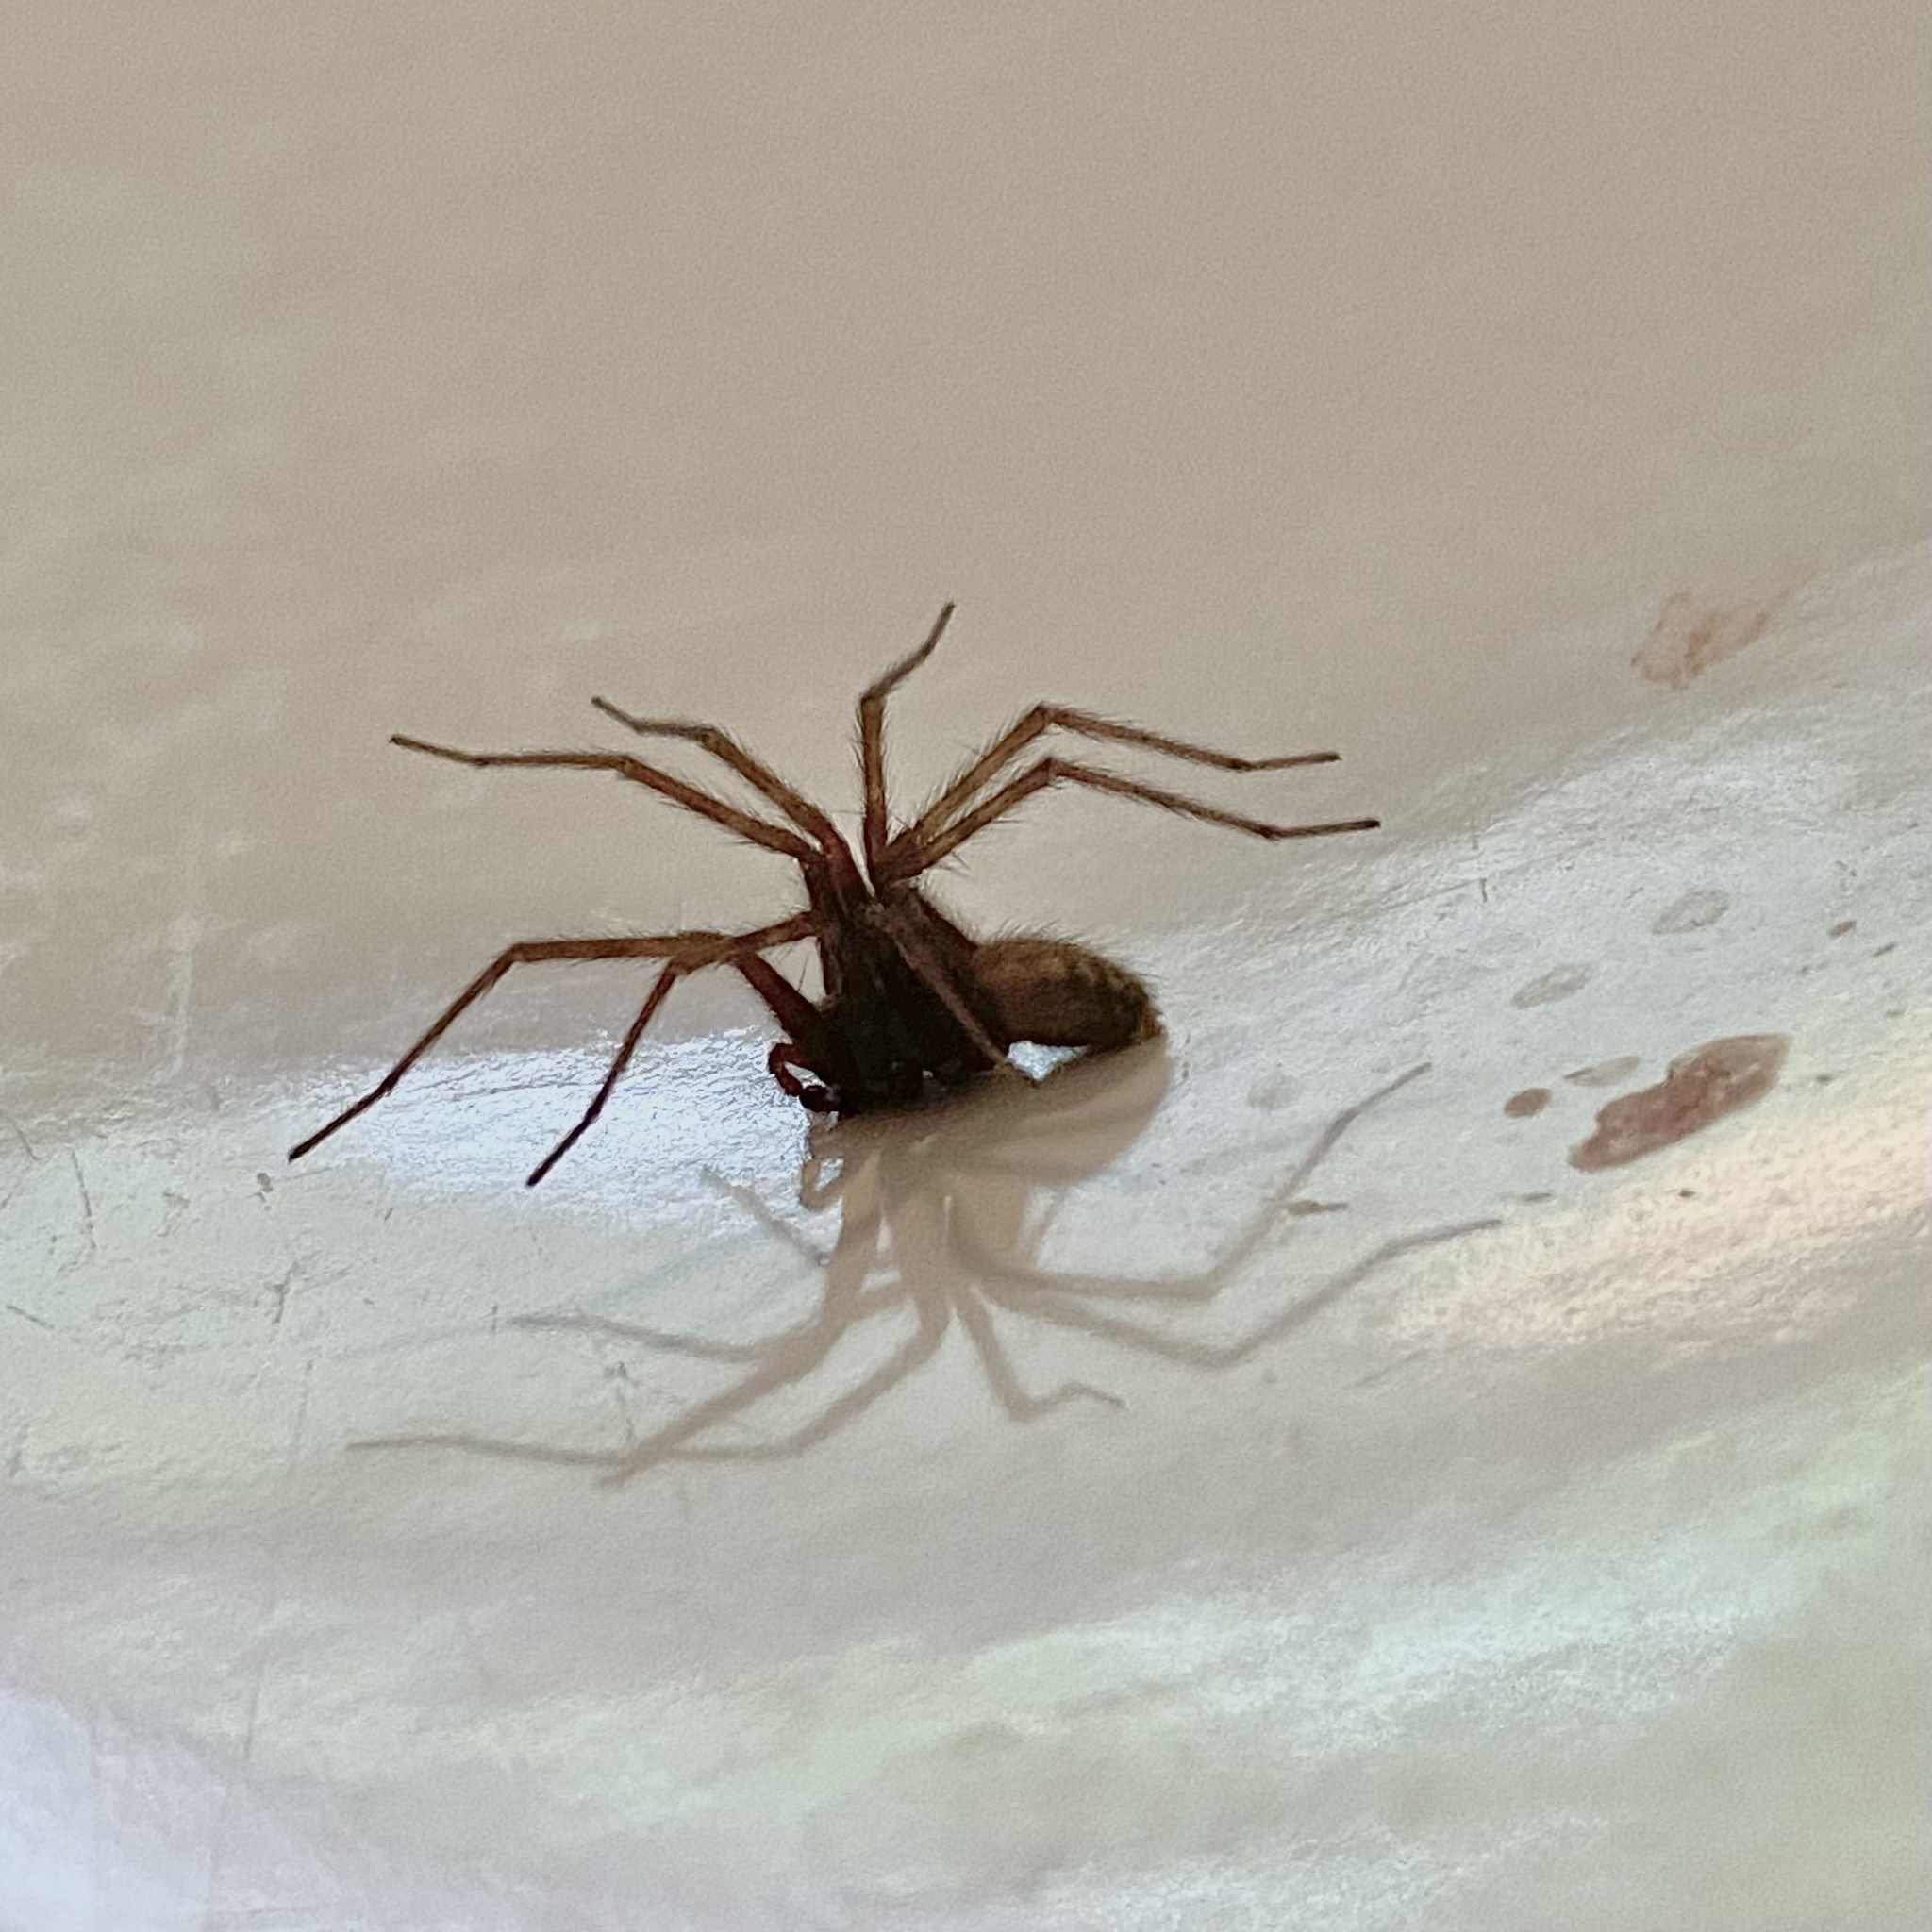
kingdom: Animalia
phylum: Arthropoda
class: Arachnida
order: Araneae
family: Agelenidae
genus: Tegenaria
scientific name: Tegenaria domestica
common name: Barn funnel weaver
